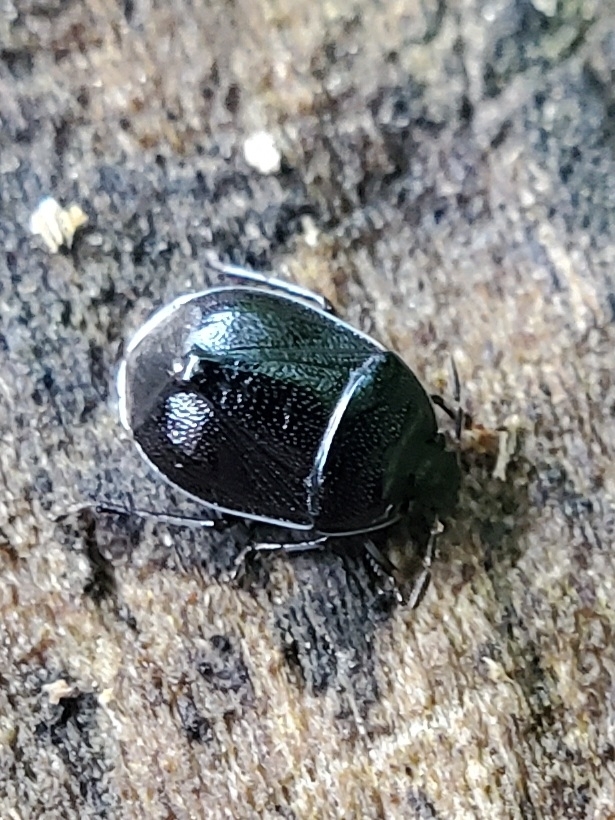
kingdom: Animalia
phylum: Arthropoda
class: Insecta
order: Hemiptera
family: Cydnidae
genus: Sehirus
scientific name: Sehirus cinctus
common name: White-margined burrower bug
